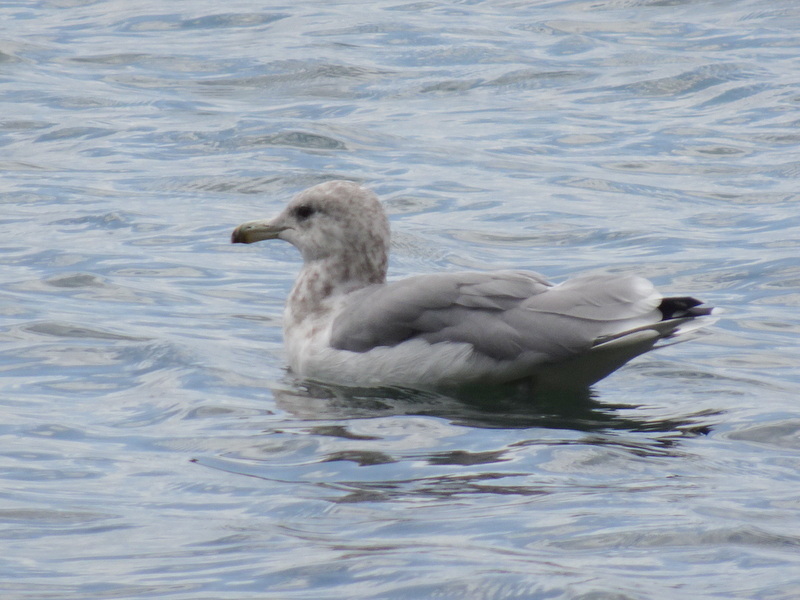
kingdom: Animalia
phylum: Chordata
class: Aves
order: Charadriiformes
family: Laridae
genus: Larus
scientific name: Larus californicus
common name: California gull
